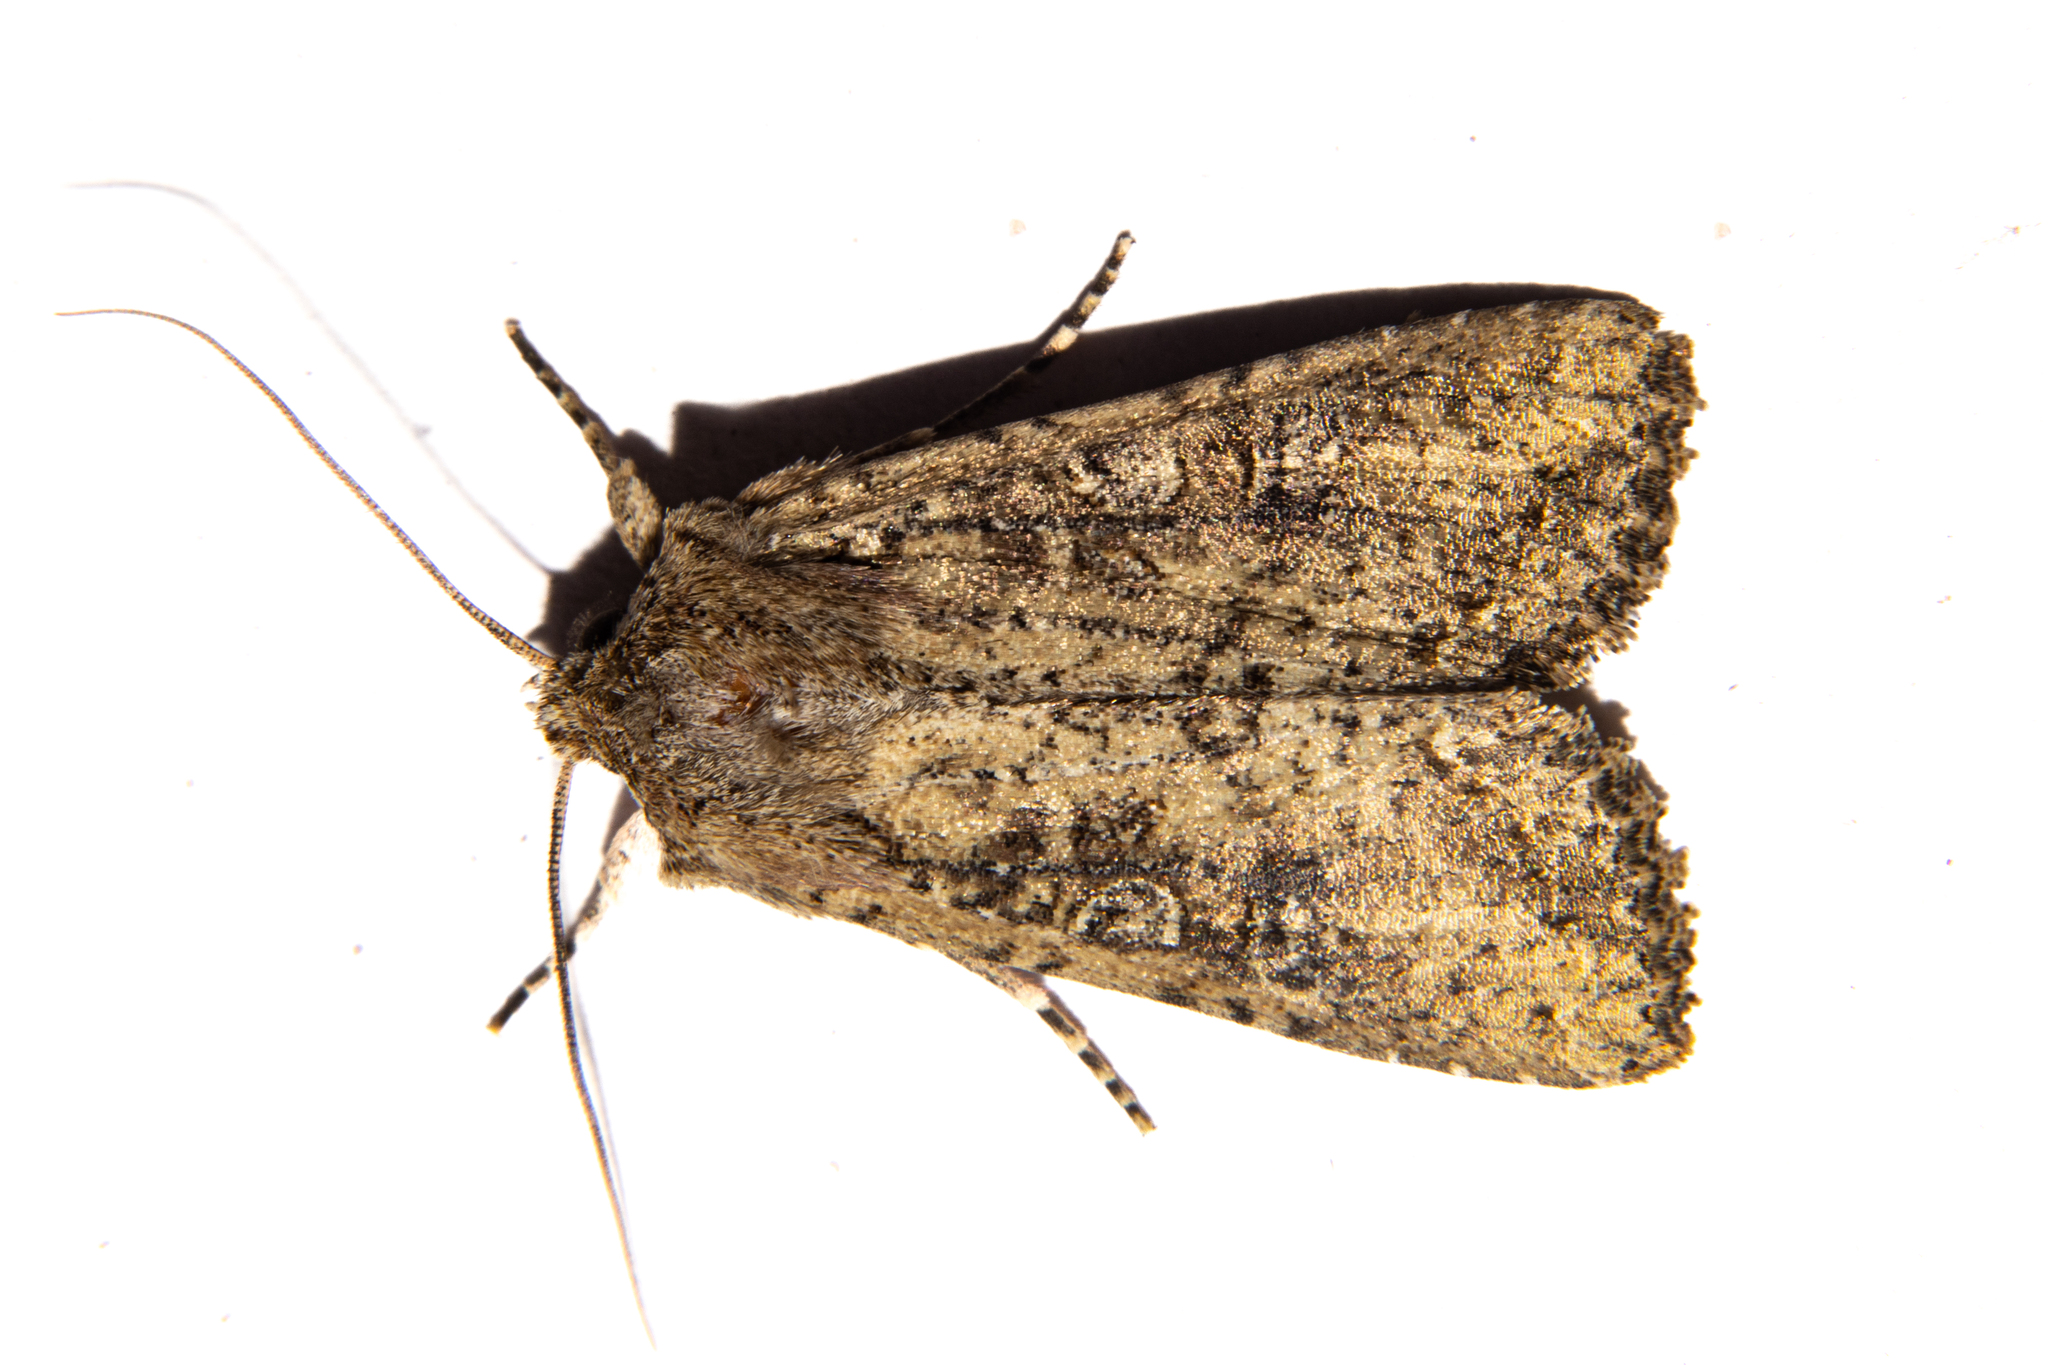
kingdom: Animalia
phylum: Arthropoda
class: Insecta
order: Lepidoptera
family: Noctuidae
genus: Ichneutica
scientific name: Ichneutica morosa
